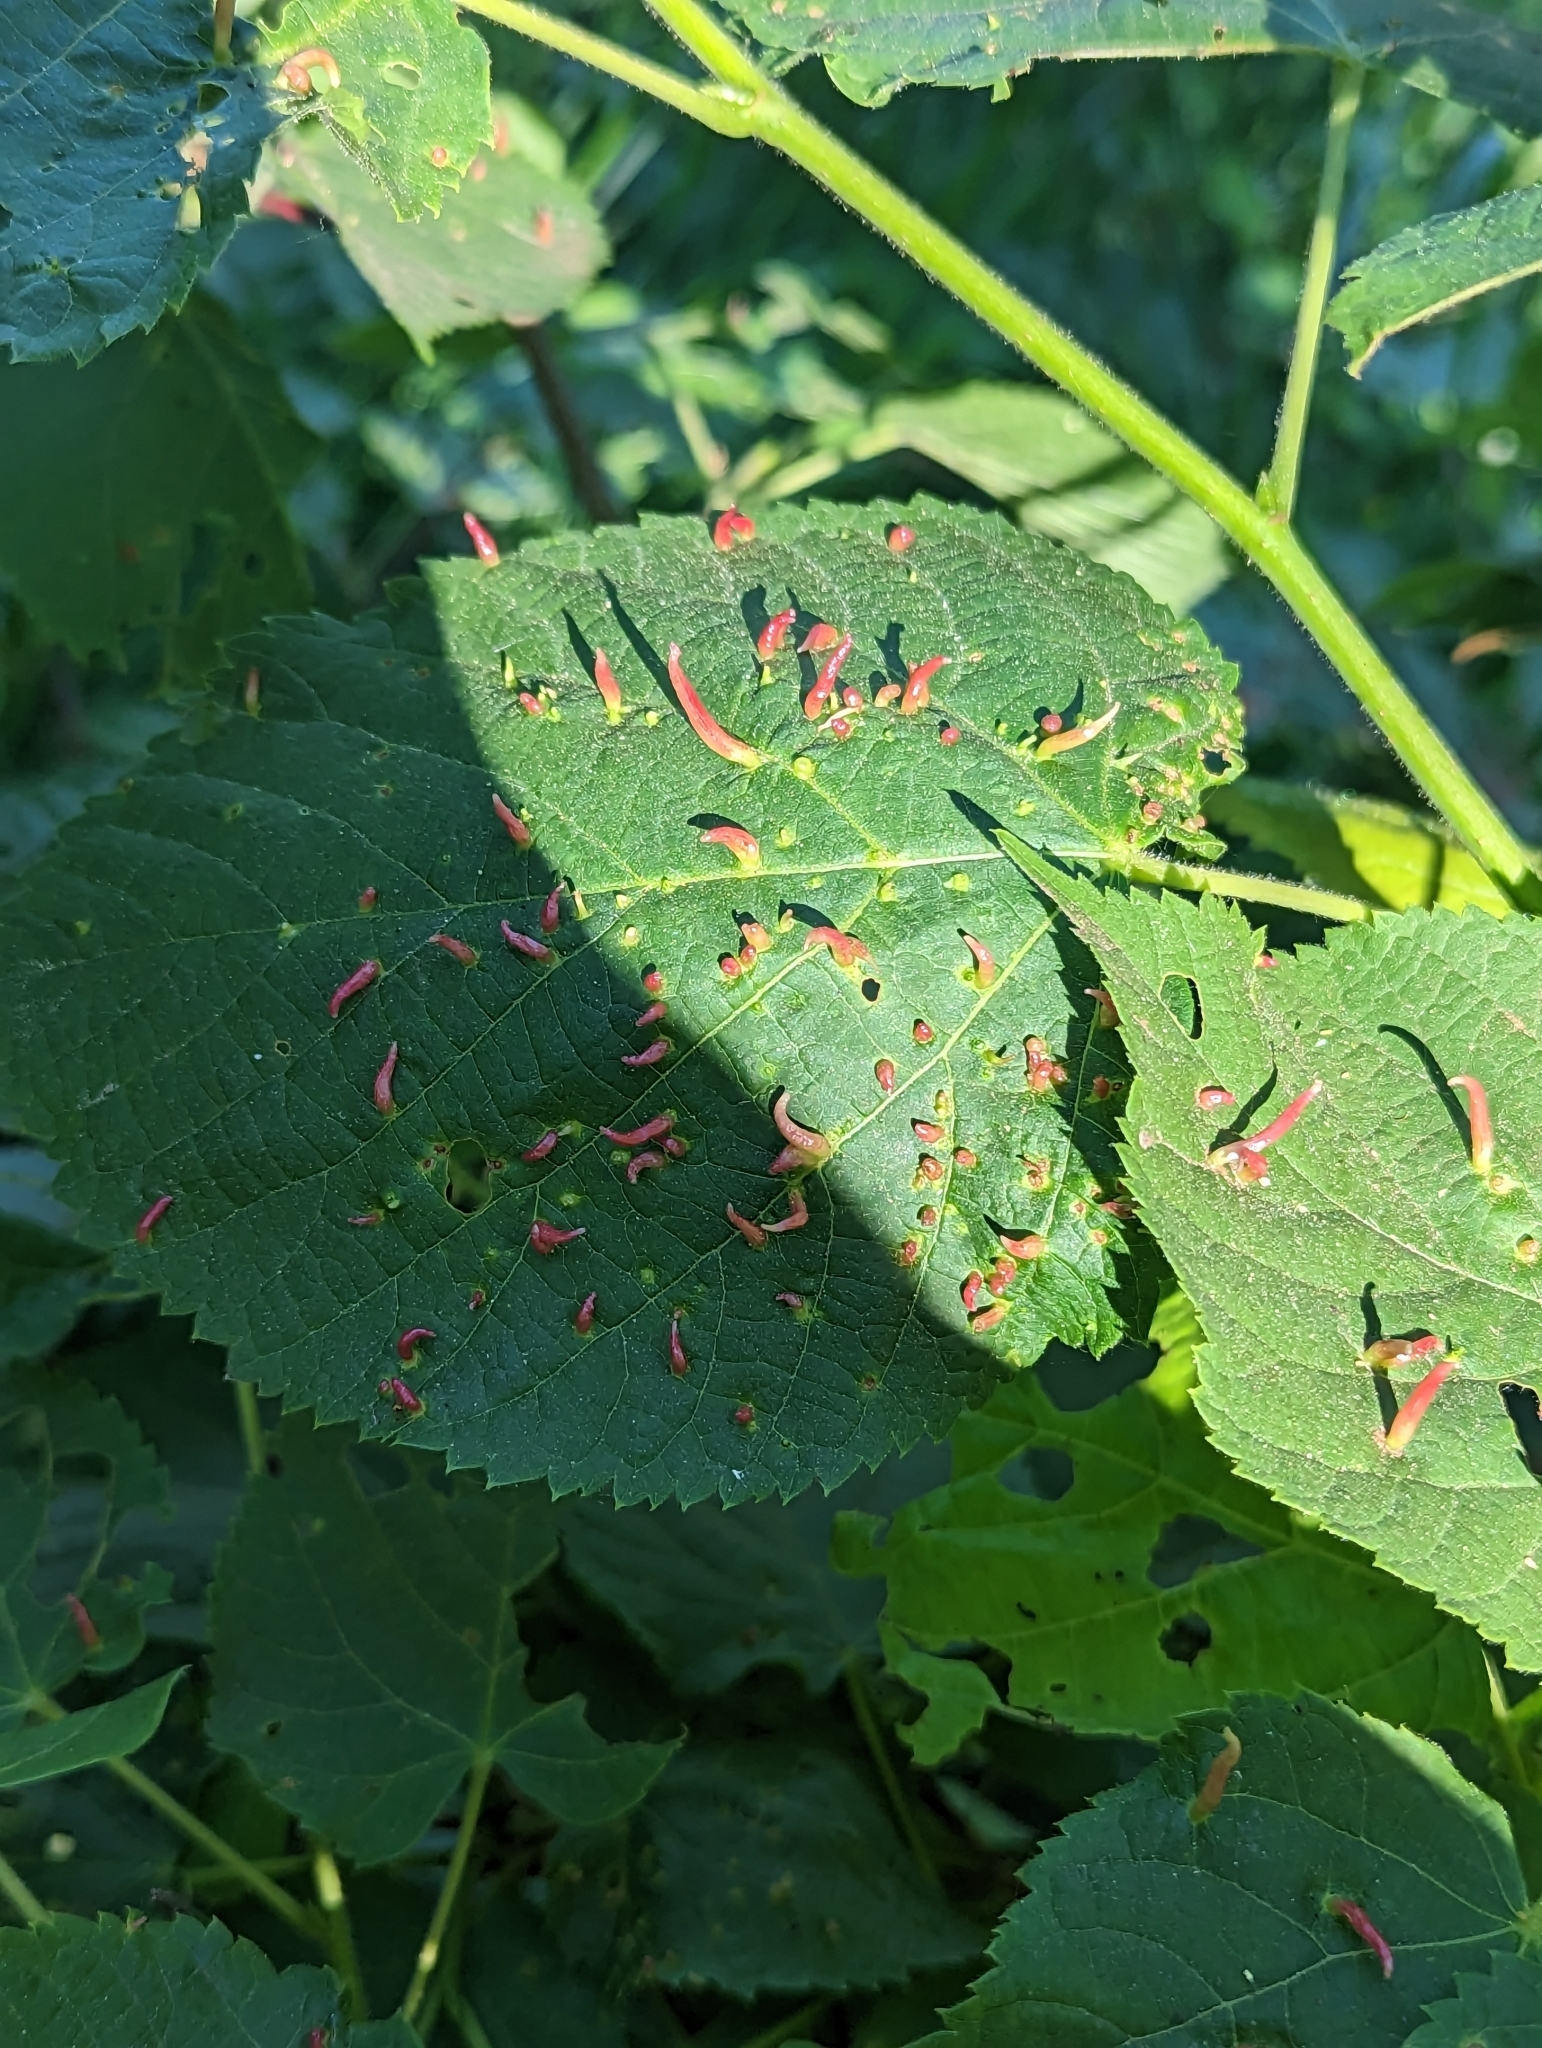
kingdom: Animalia
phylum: Arthropoda
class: Arachnida
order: Trombidiformes
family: Eriophyidae
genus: Eriophyes
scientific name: Eriophyes tiliae
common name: Red nail gall mite
